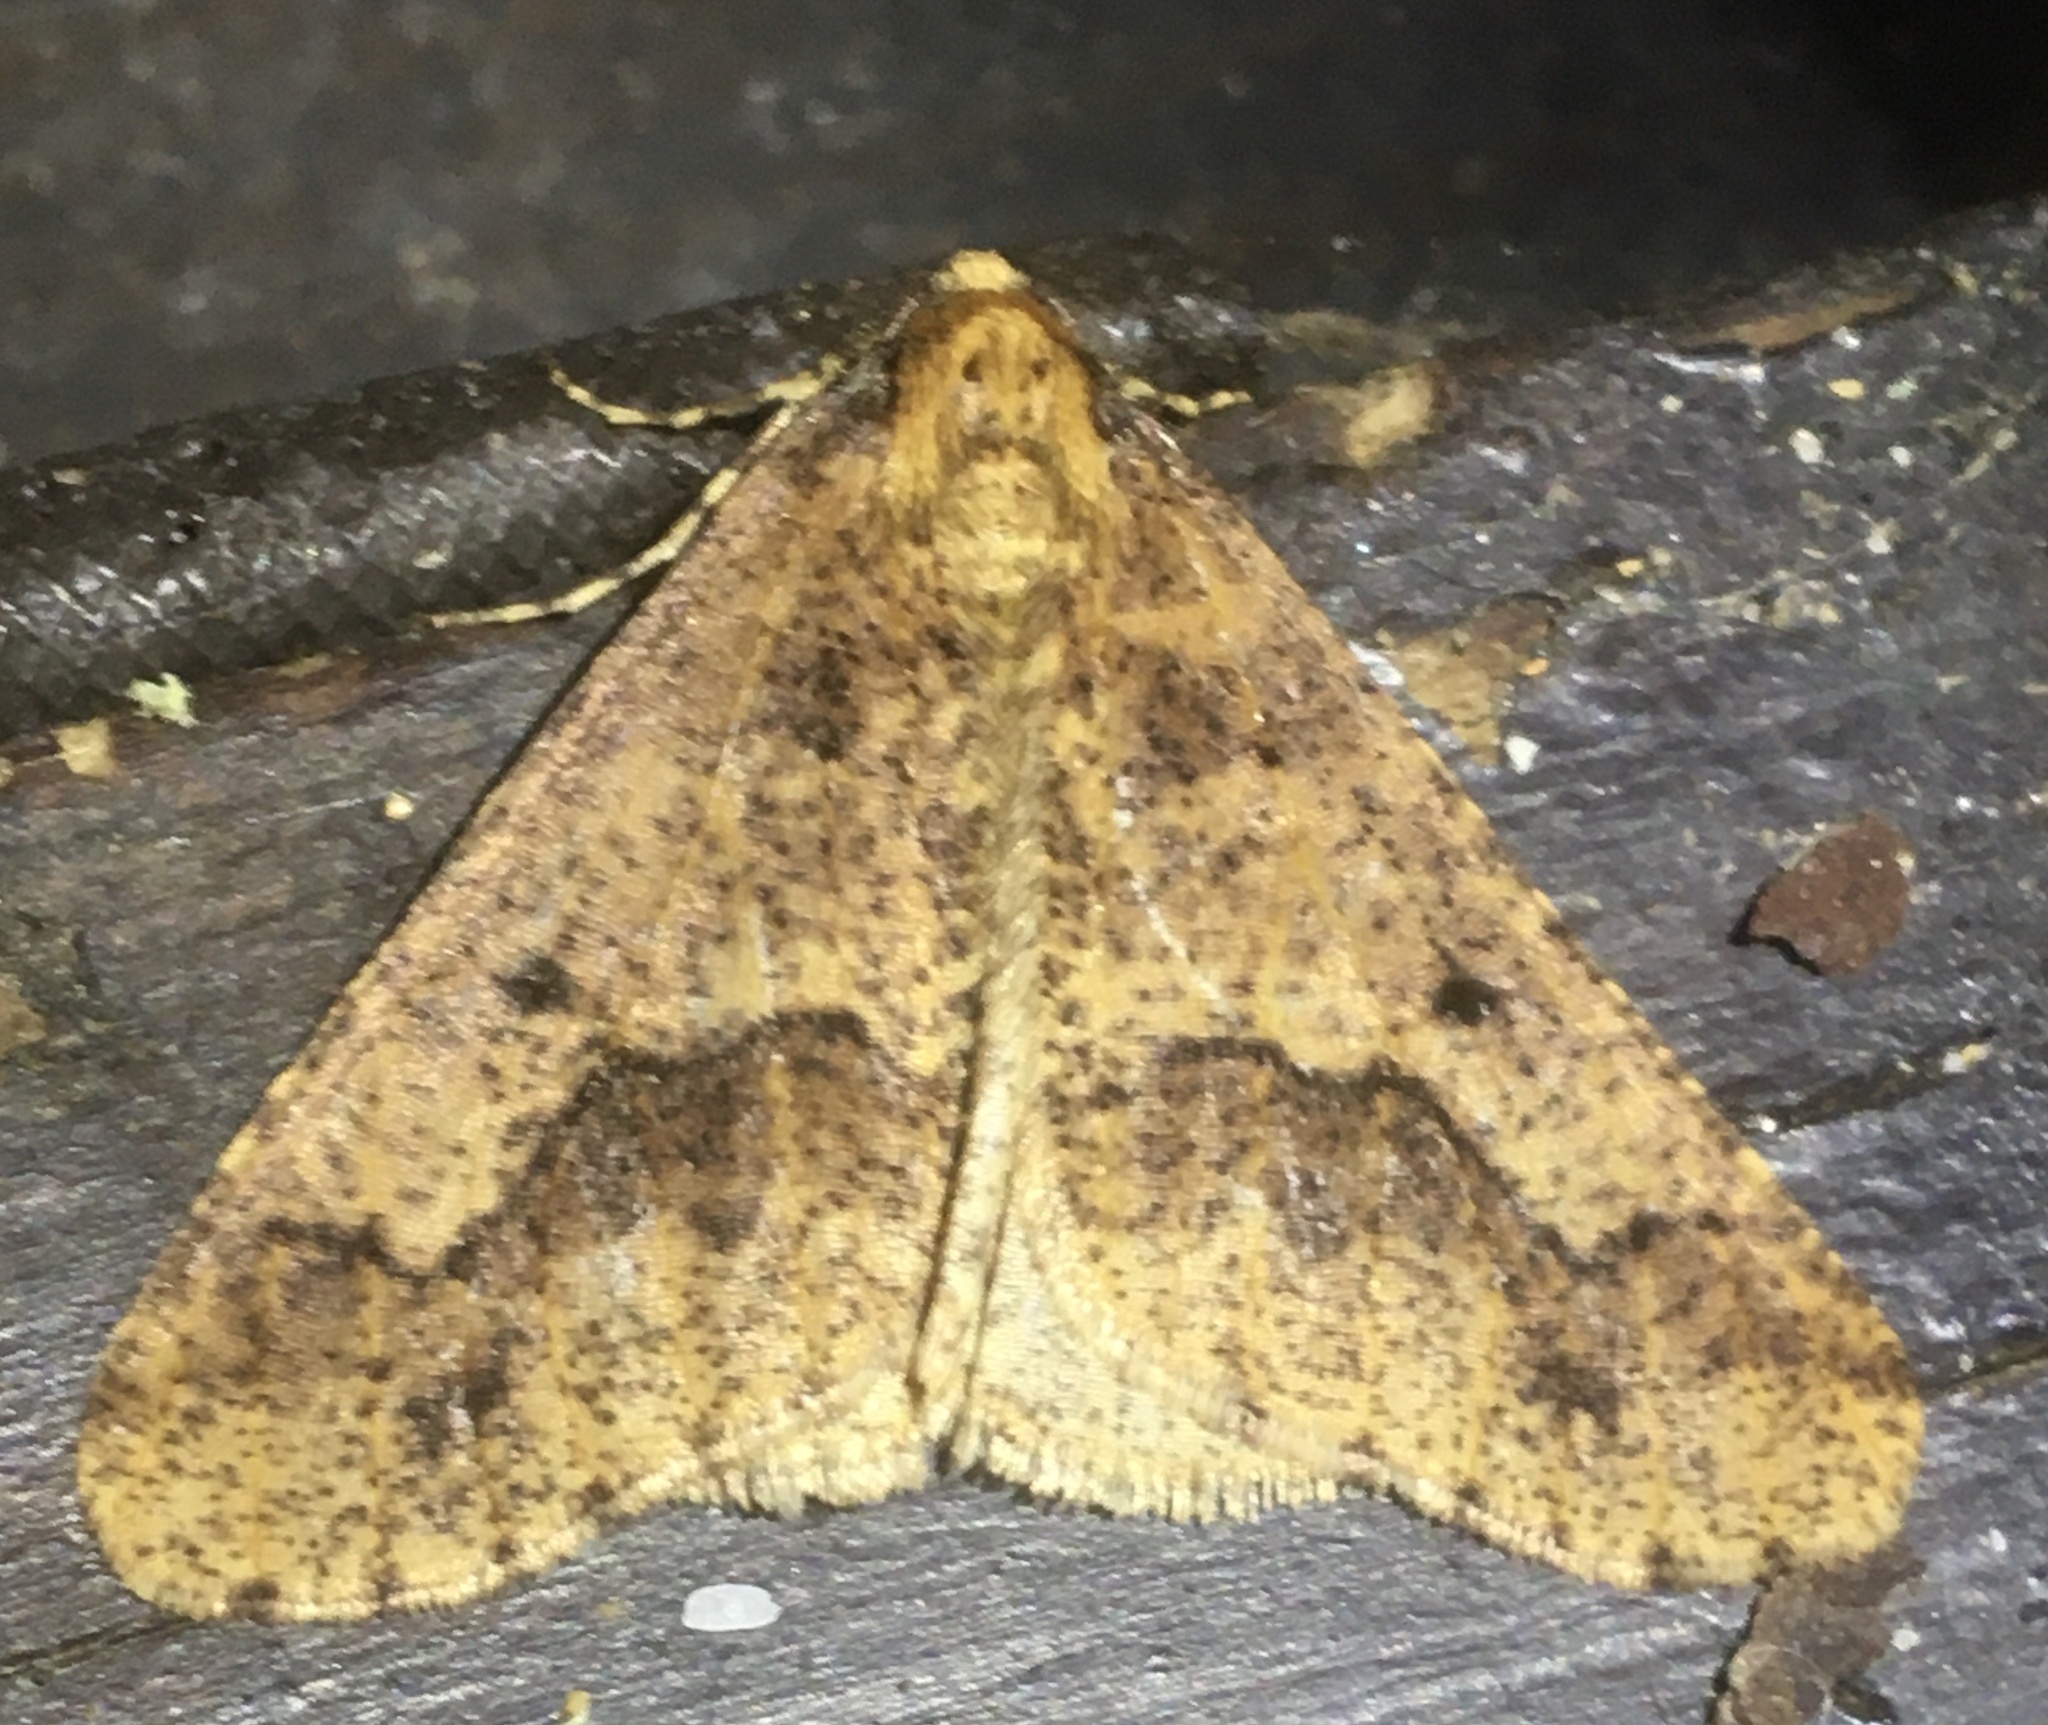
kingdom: Animalia
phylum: Arthropoda
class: Insecta
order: Lepidoptera
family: Geometridae
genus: Erannis
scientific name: Erannis defoliaria
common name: Mottled umber
